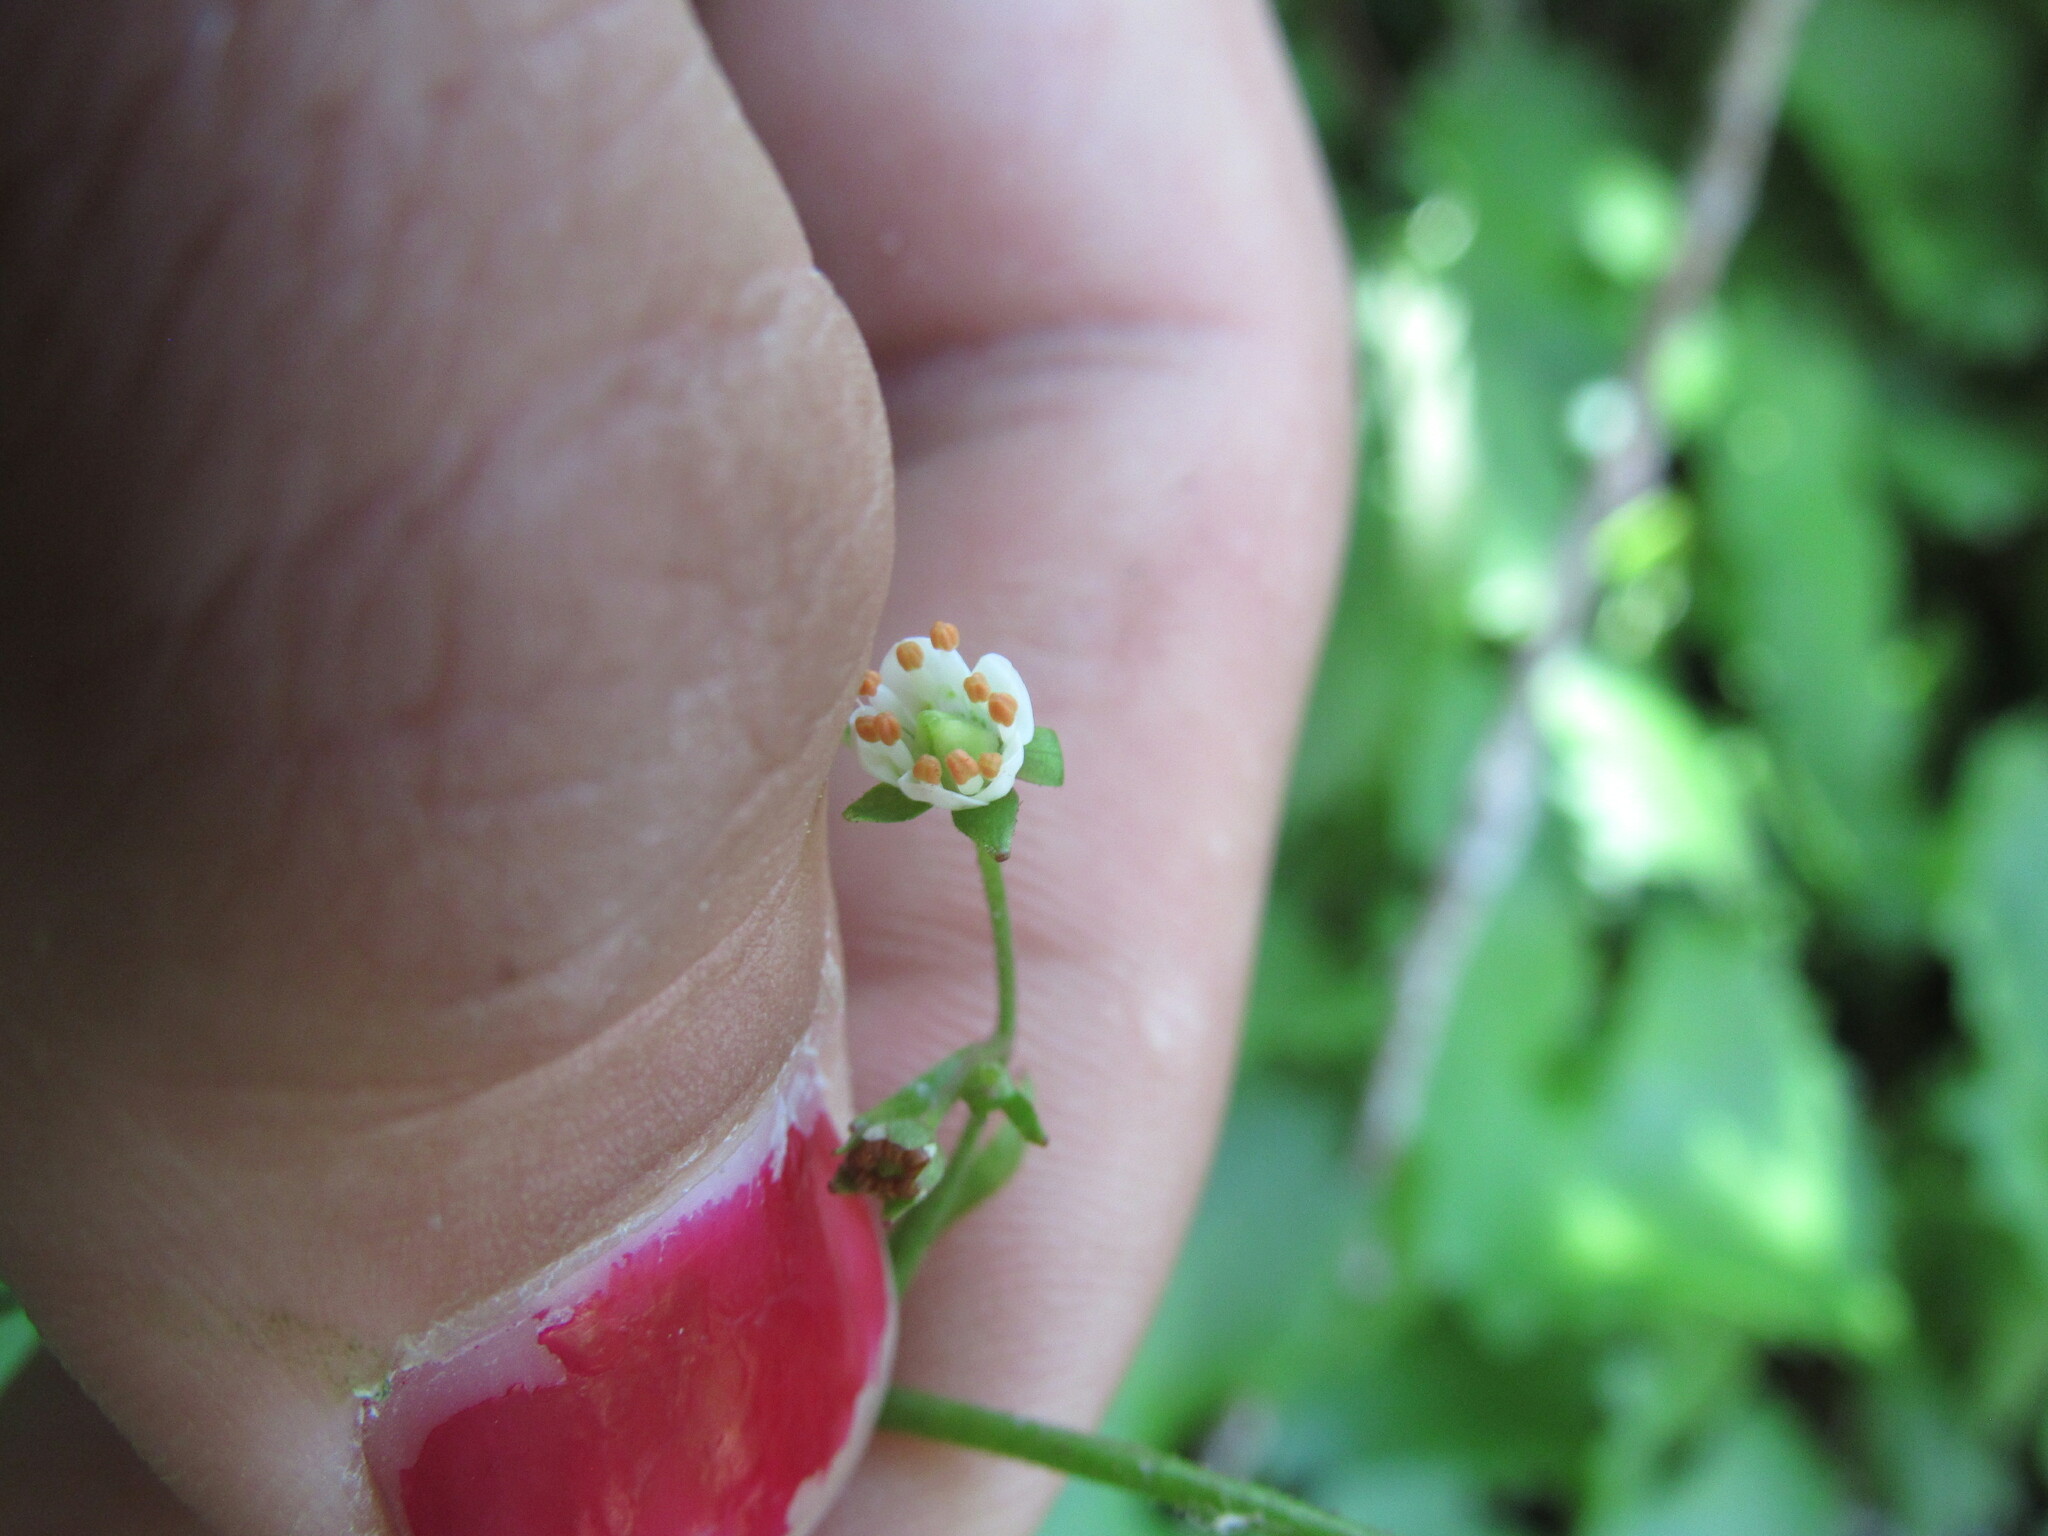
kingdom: Plantae
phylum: Tracheophyta
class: Magnoliopsida
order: Saxifragales
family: Saxifragaceae
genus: Micranthes
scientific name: Micranthes odontoloma
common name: Brook saxifrage
